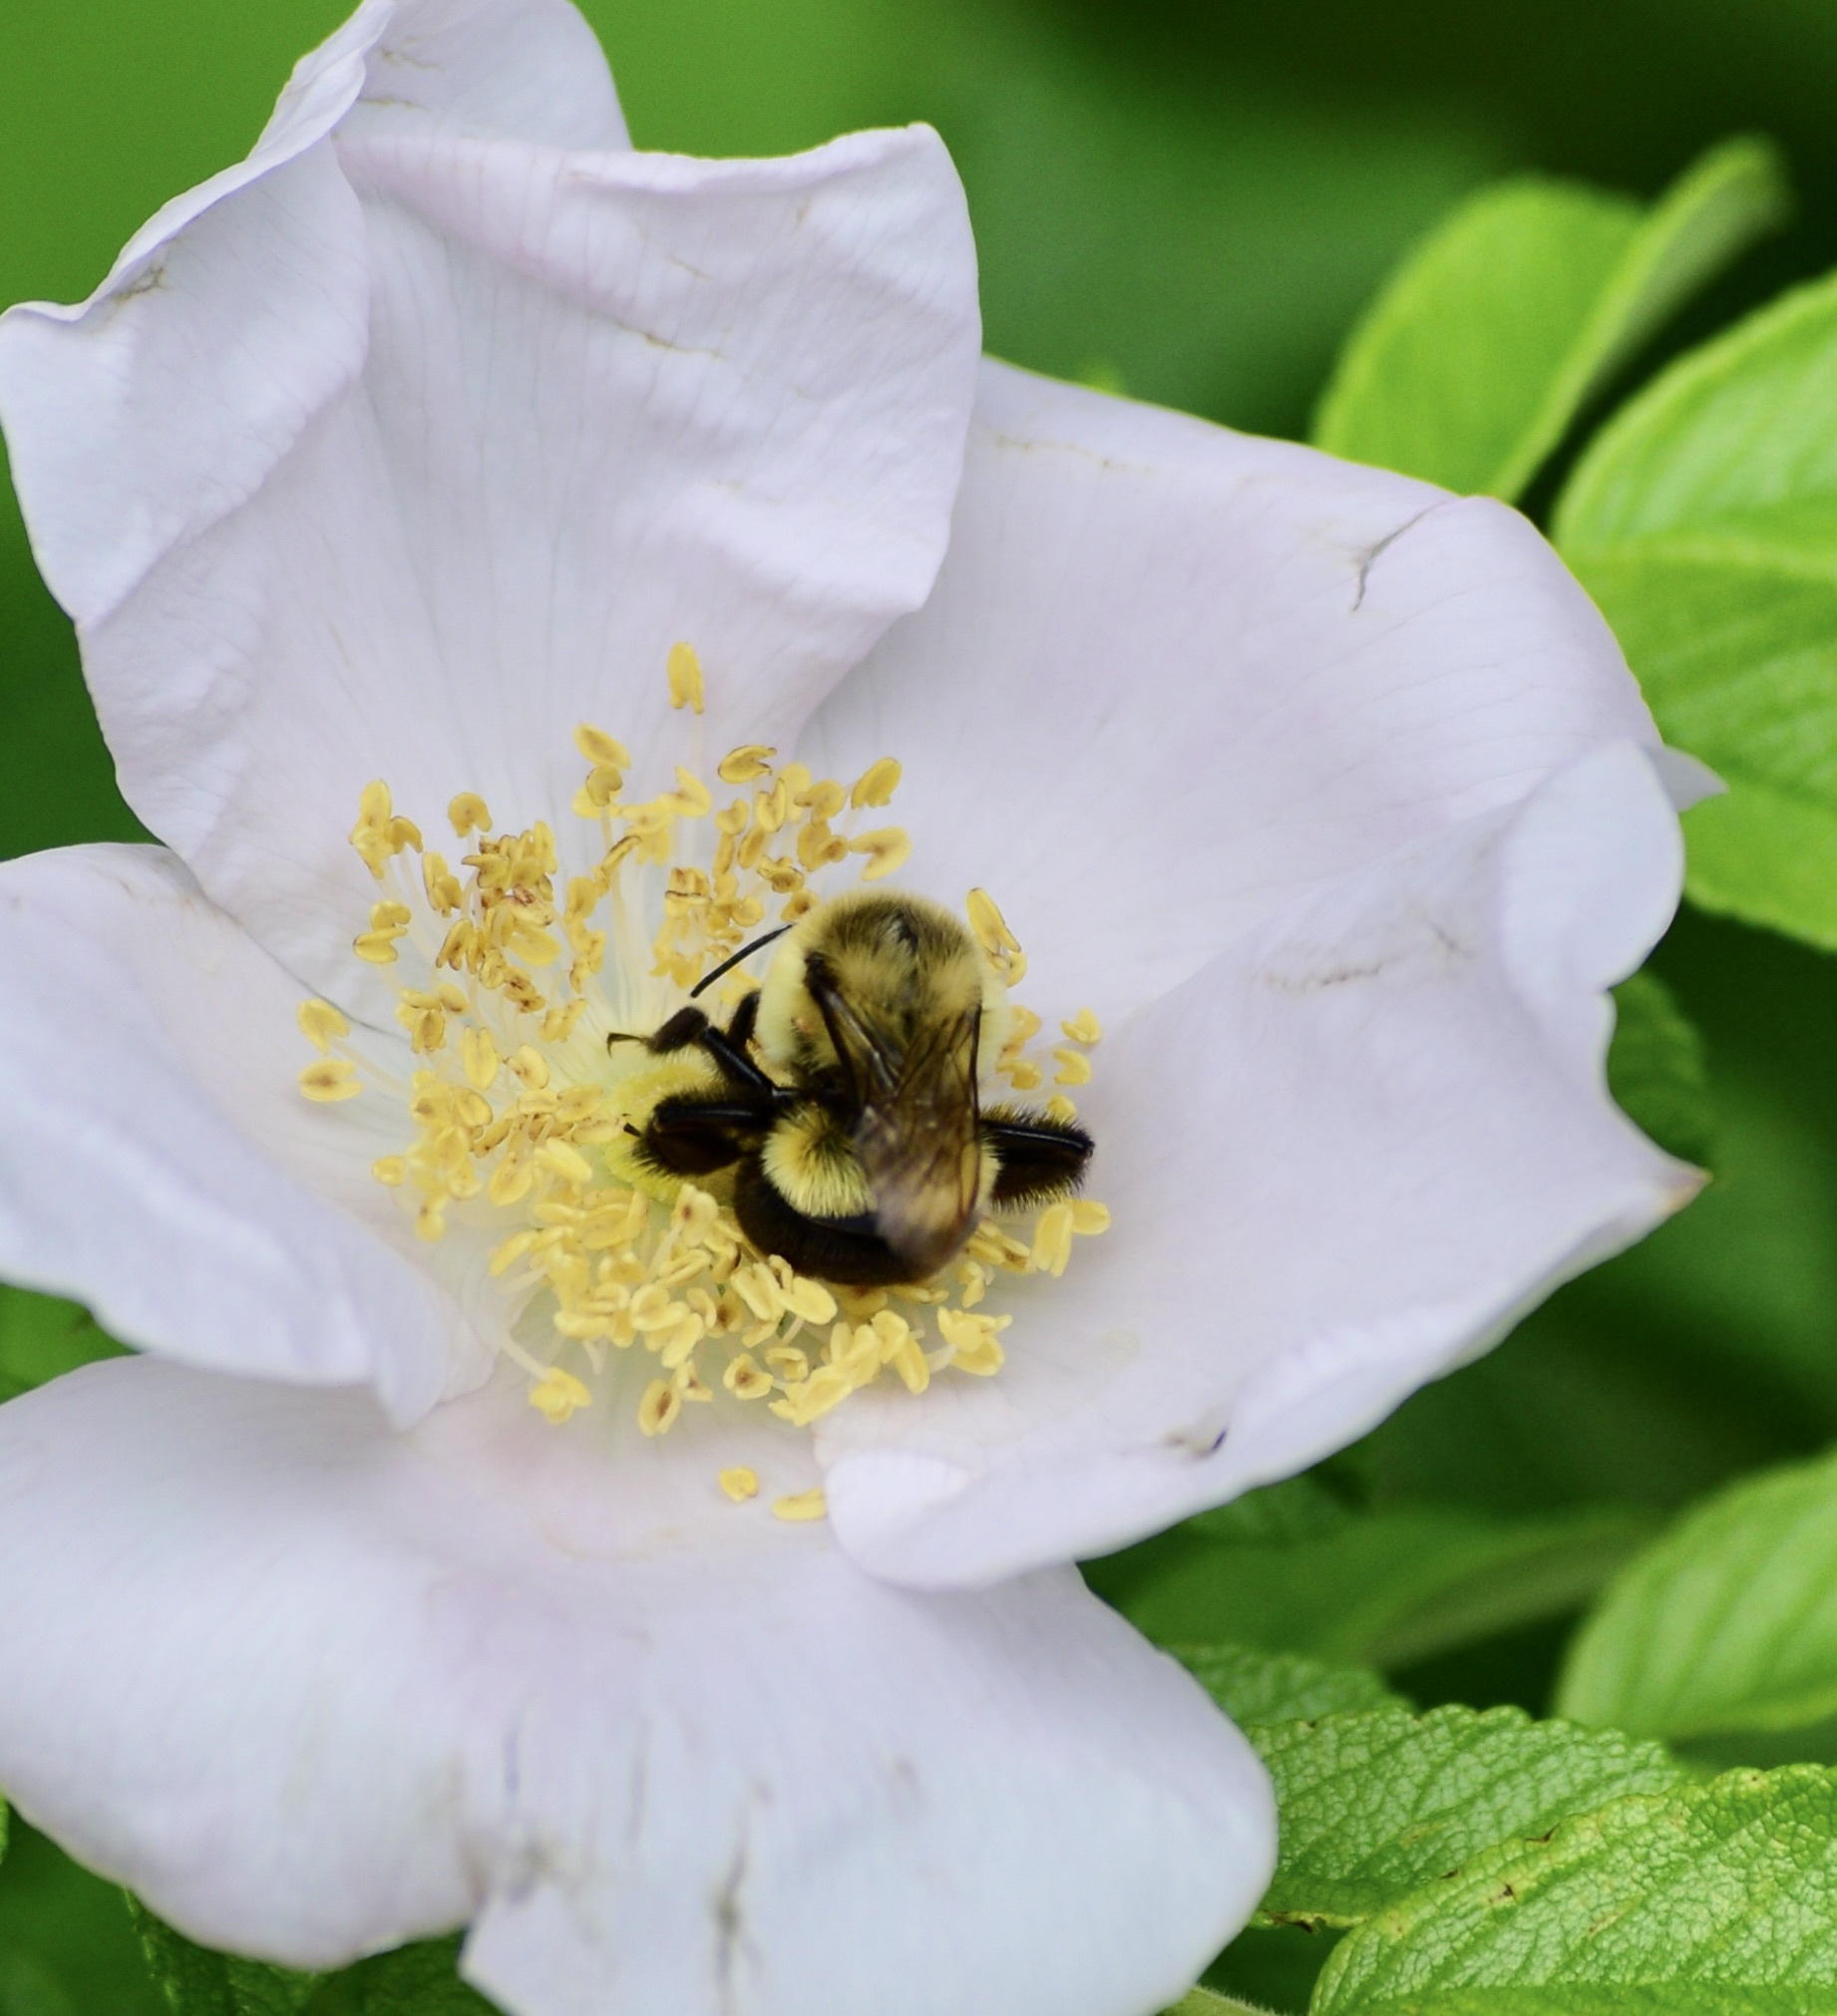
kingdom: Animalia
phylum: Arthropoda
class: Insecta
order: Hymenoptera
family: Apidae
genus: Bombus
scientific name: Bombus impatiens
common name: Common eastern bumble bee
